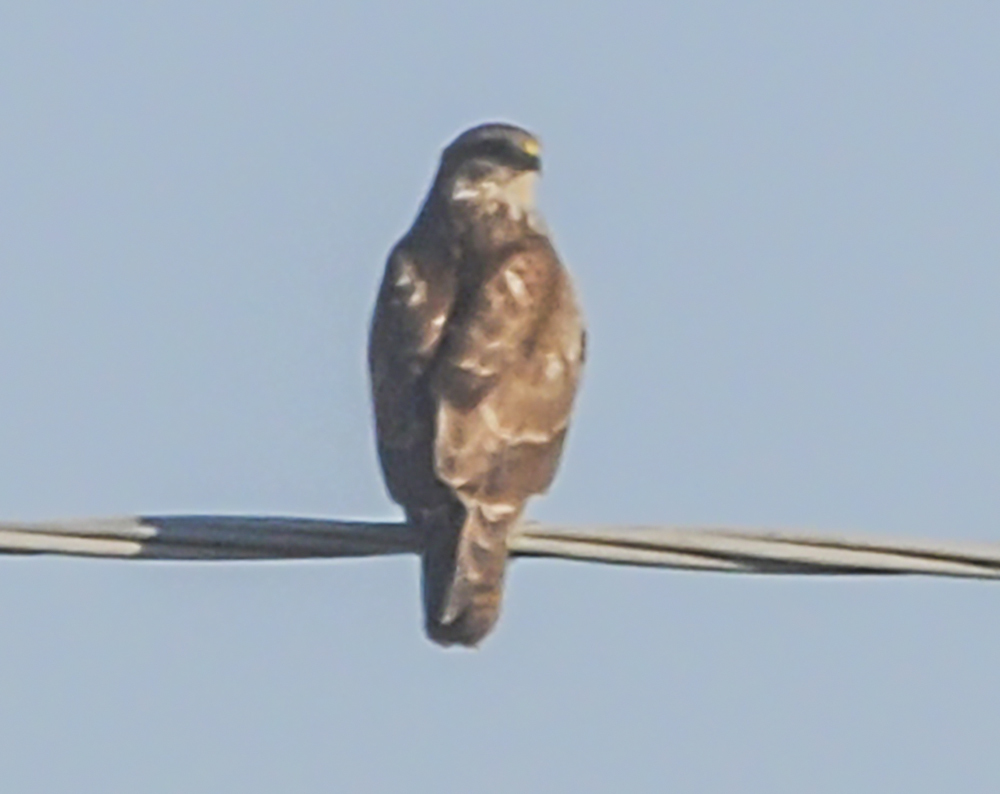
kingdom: Animalia
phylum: Chordata
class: Aves
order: Accipitriformes
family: Accipitridae
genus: Buteo
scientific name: Buteo buteo
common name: Common buzzard
